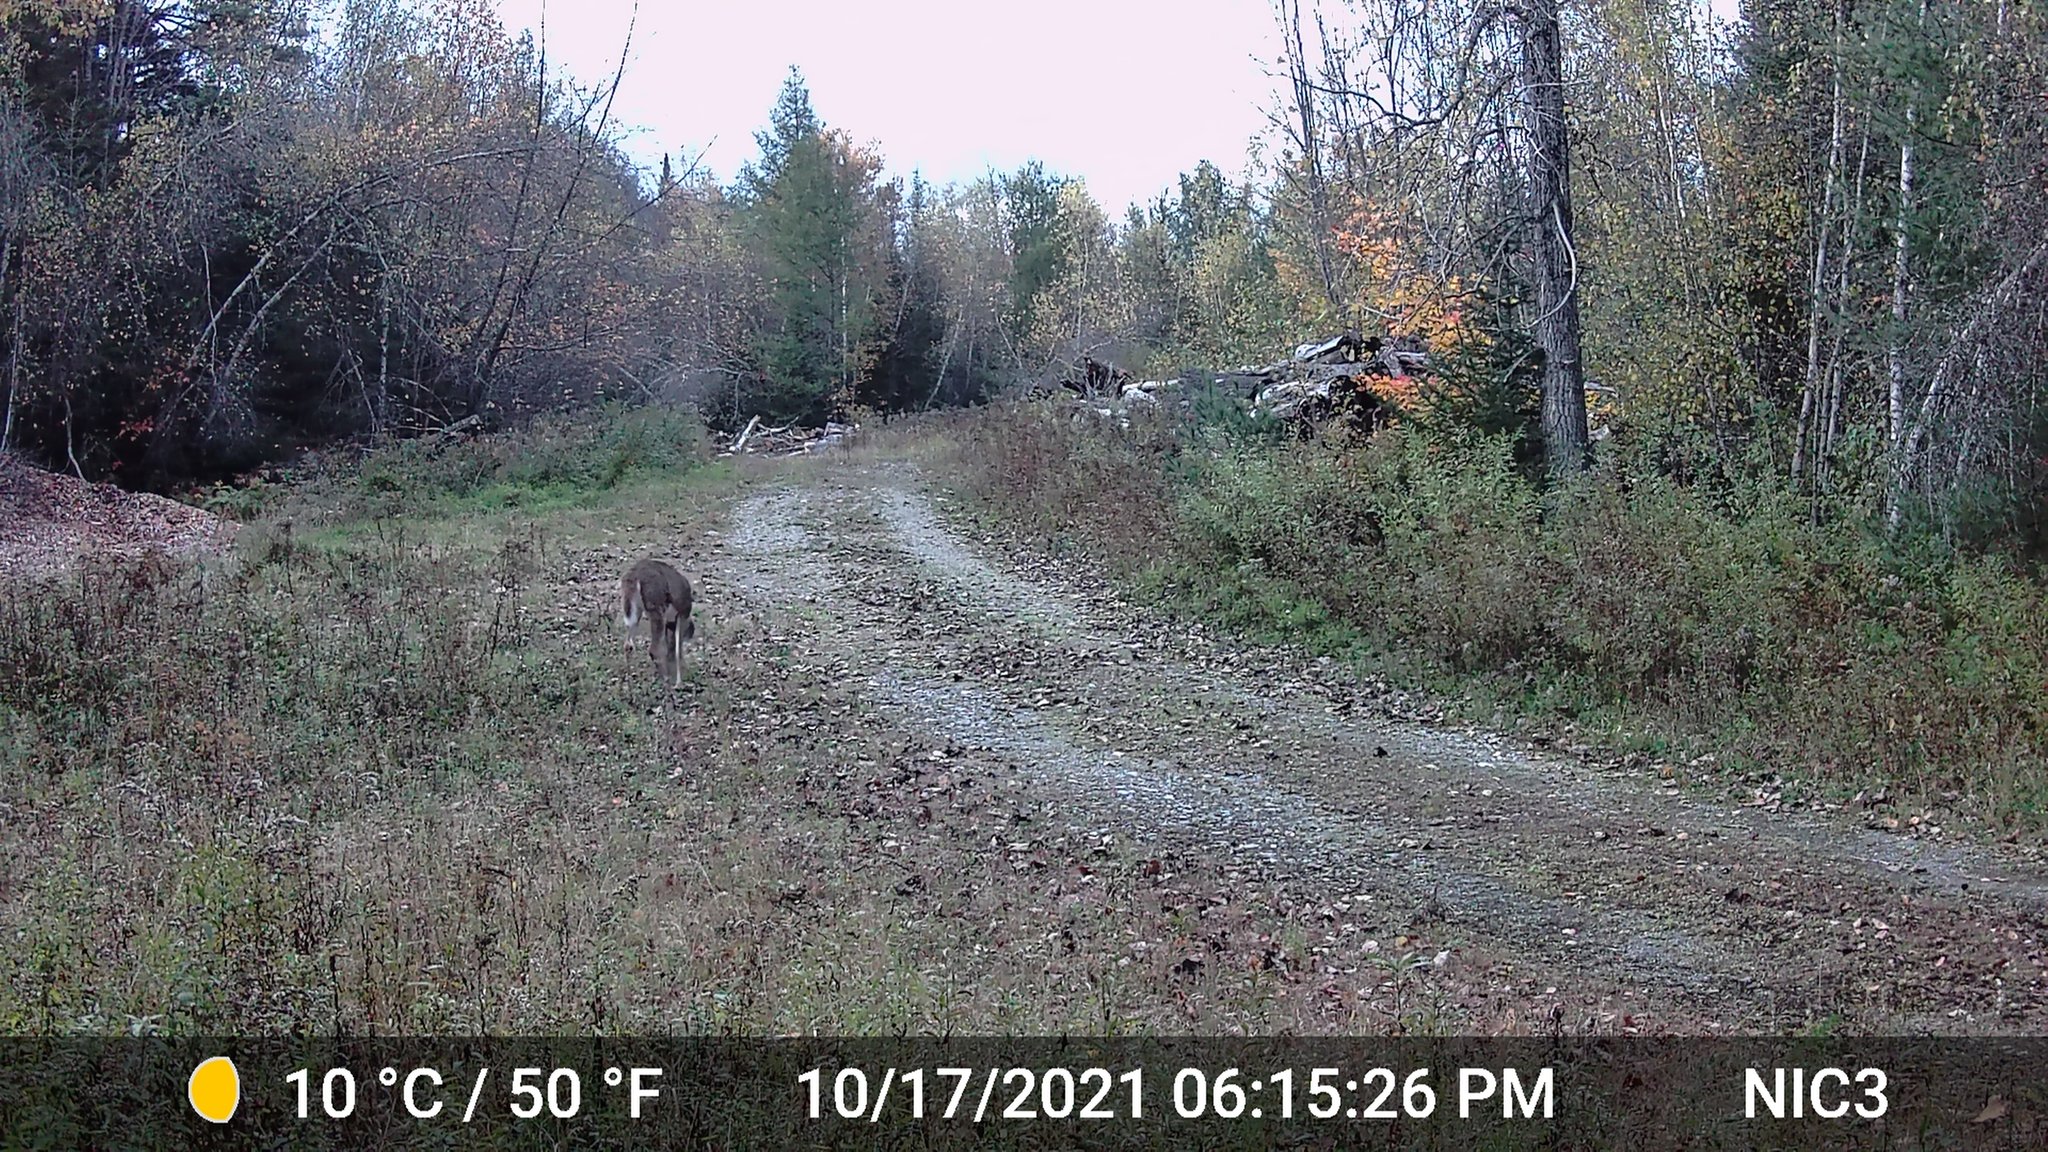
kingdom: Animalia
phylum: Chordata
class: Mammalia
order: Artiodactyla
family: Cervidae
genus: Odocoileus
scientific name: Odocoileus virginianus
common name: White-tailed deer
